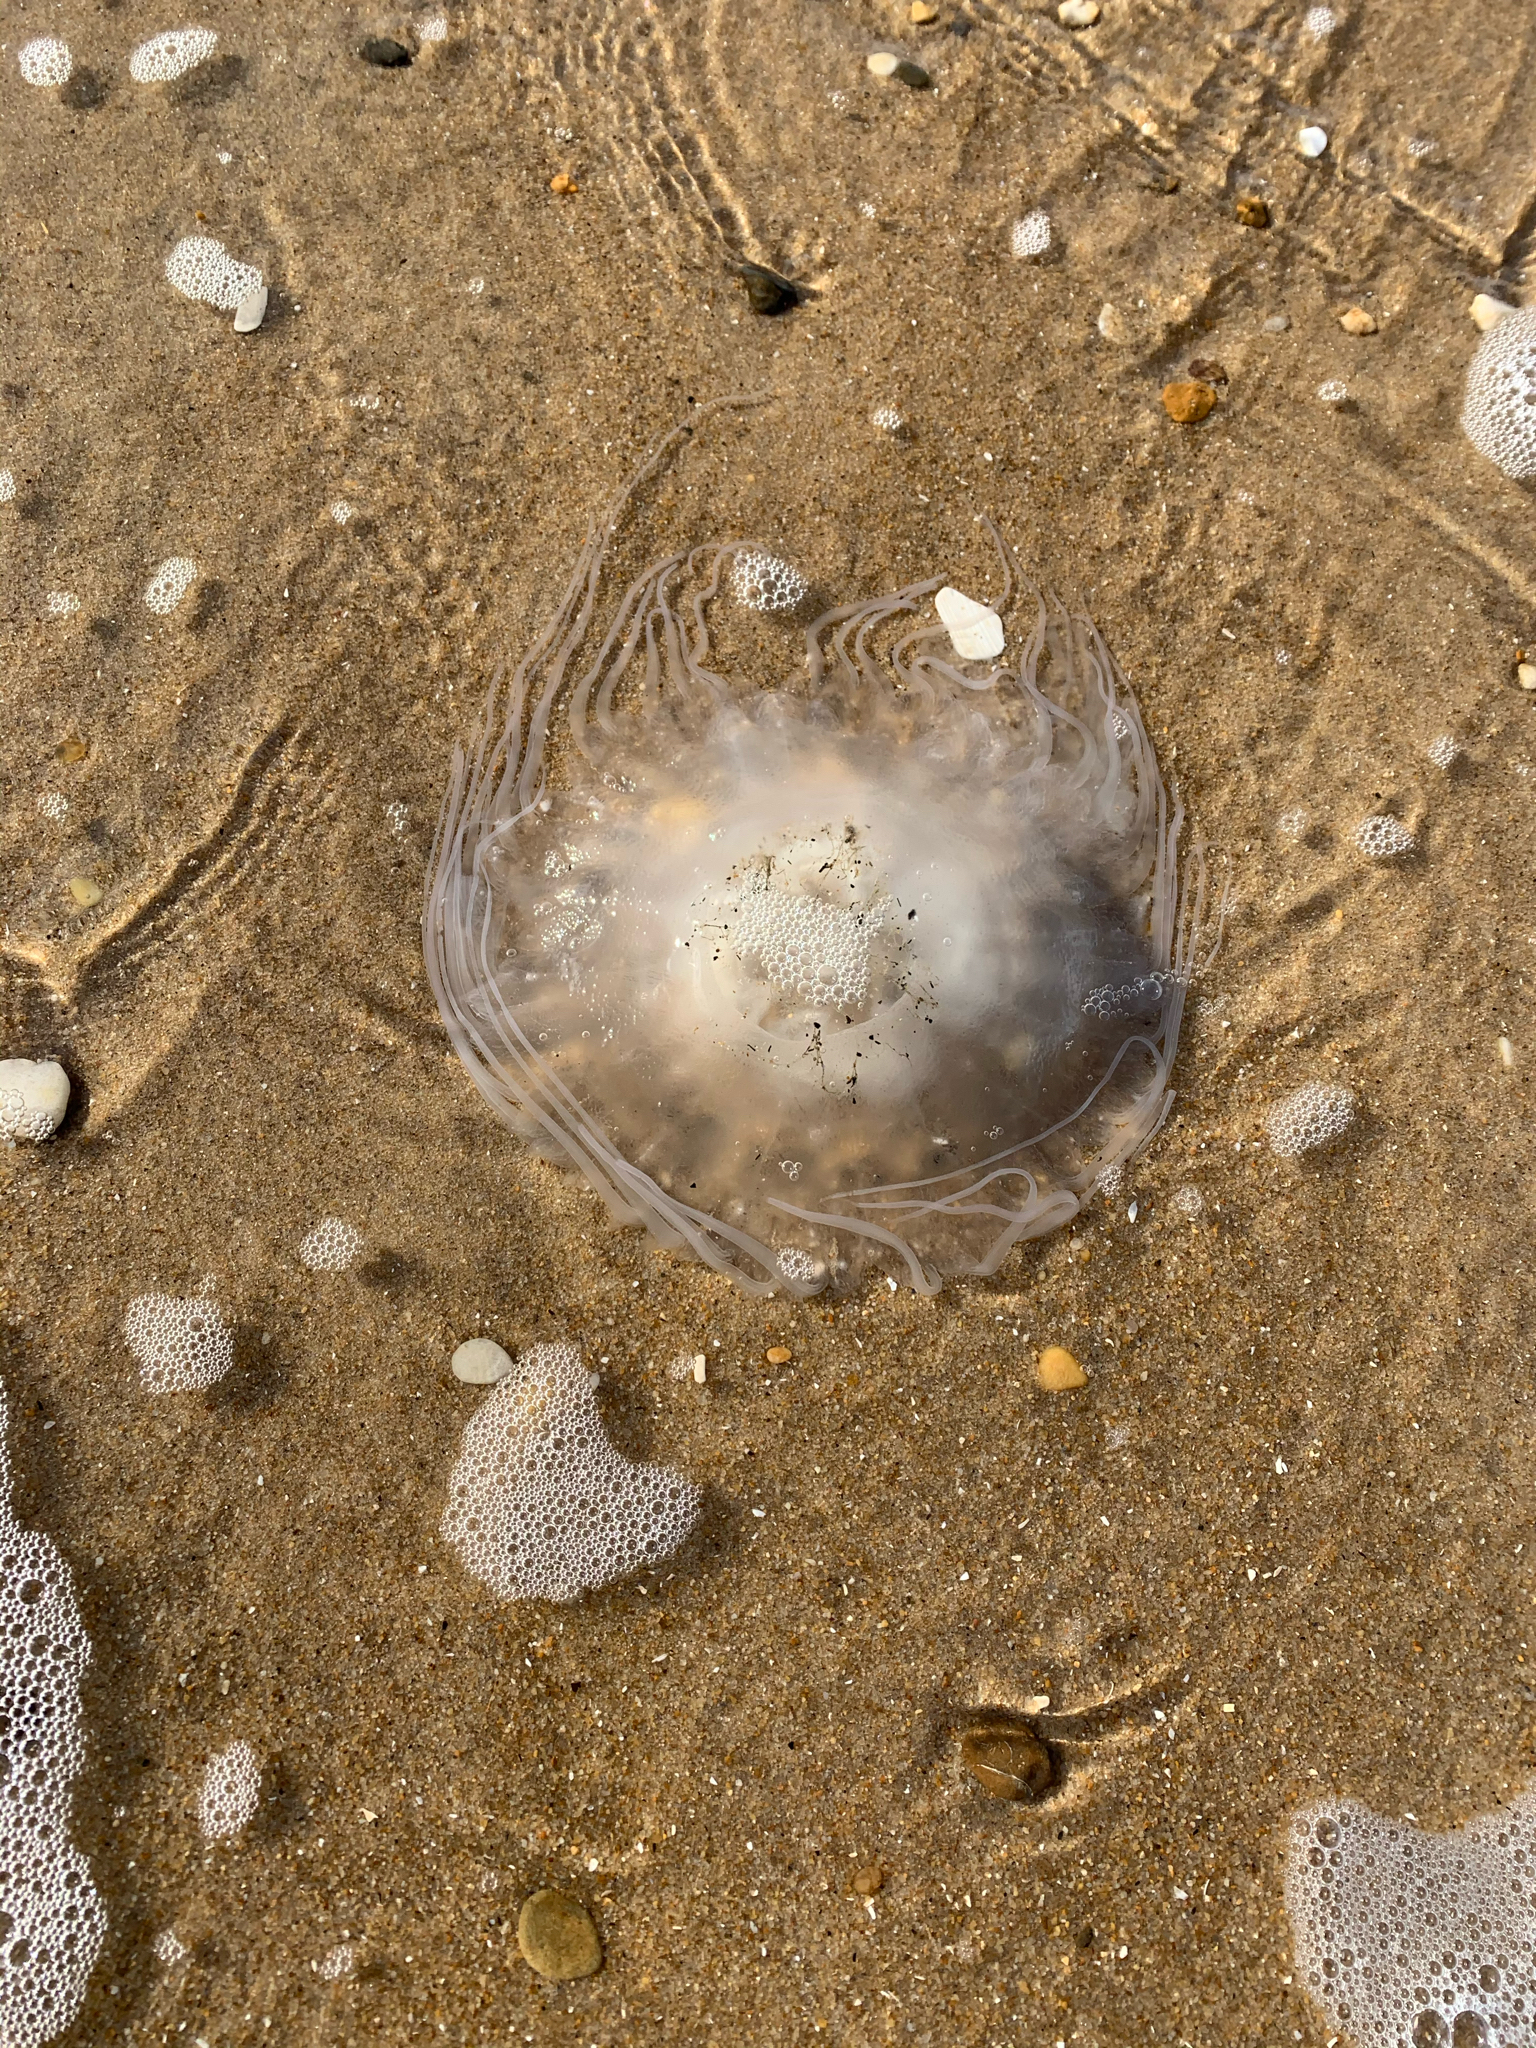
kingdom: Animalia
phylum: Cnidaria
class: Scyphozoa
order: Semaeostomeae
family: Pelagiidae
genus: Chrysaora
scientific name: Chrysaora quinquecirrha
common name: Atlantic sea nettle
